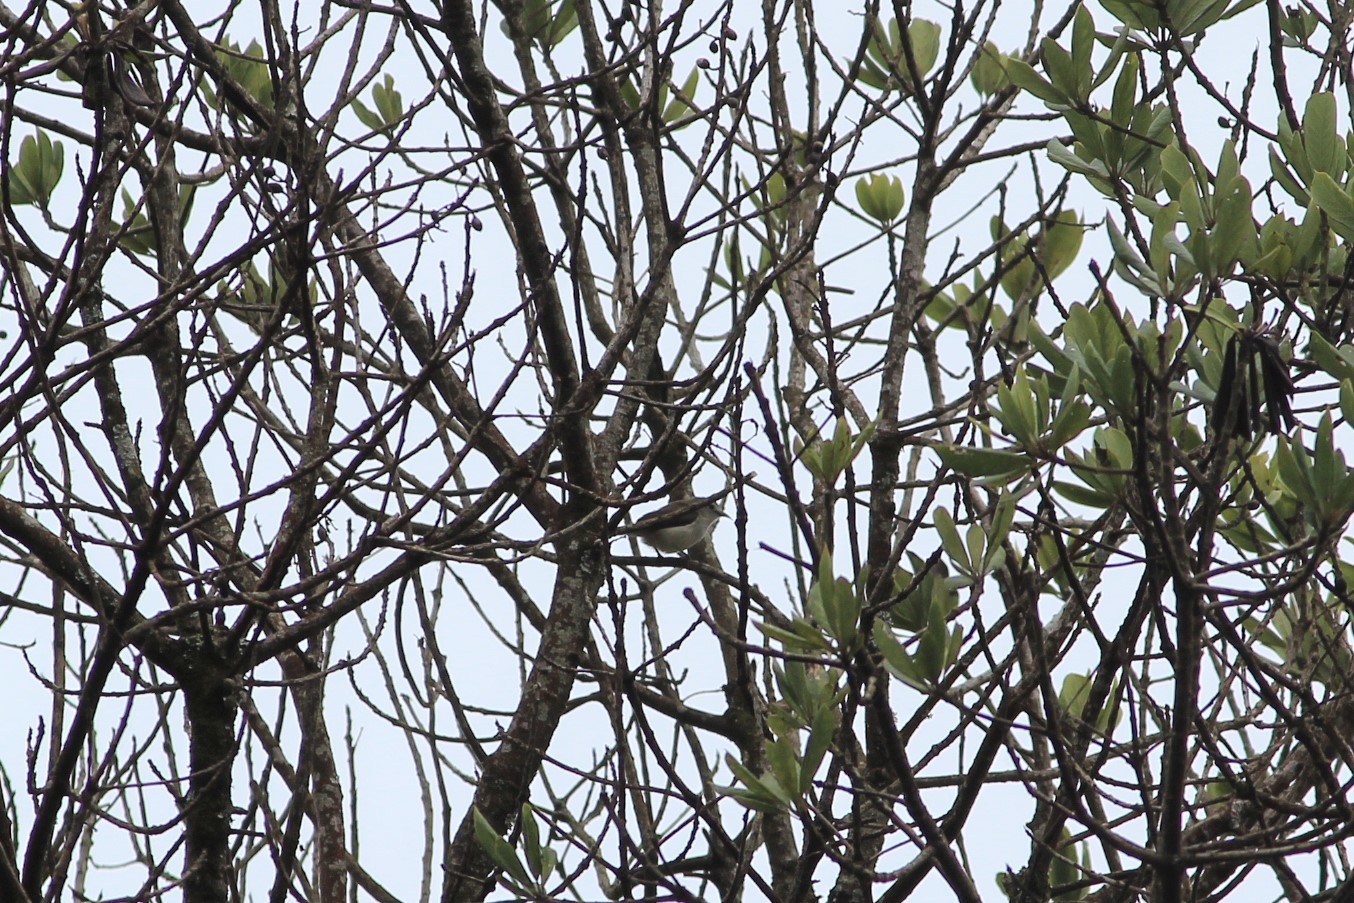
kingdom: Animalia
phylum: Chordata
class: Aves
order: Passeriformes
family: Dicaeidae
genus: Dicaeum
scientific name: Dicaeum concolor
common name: Nilgiri flowerpecker
